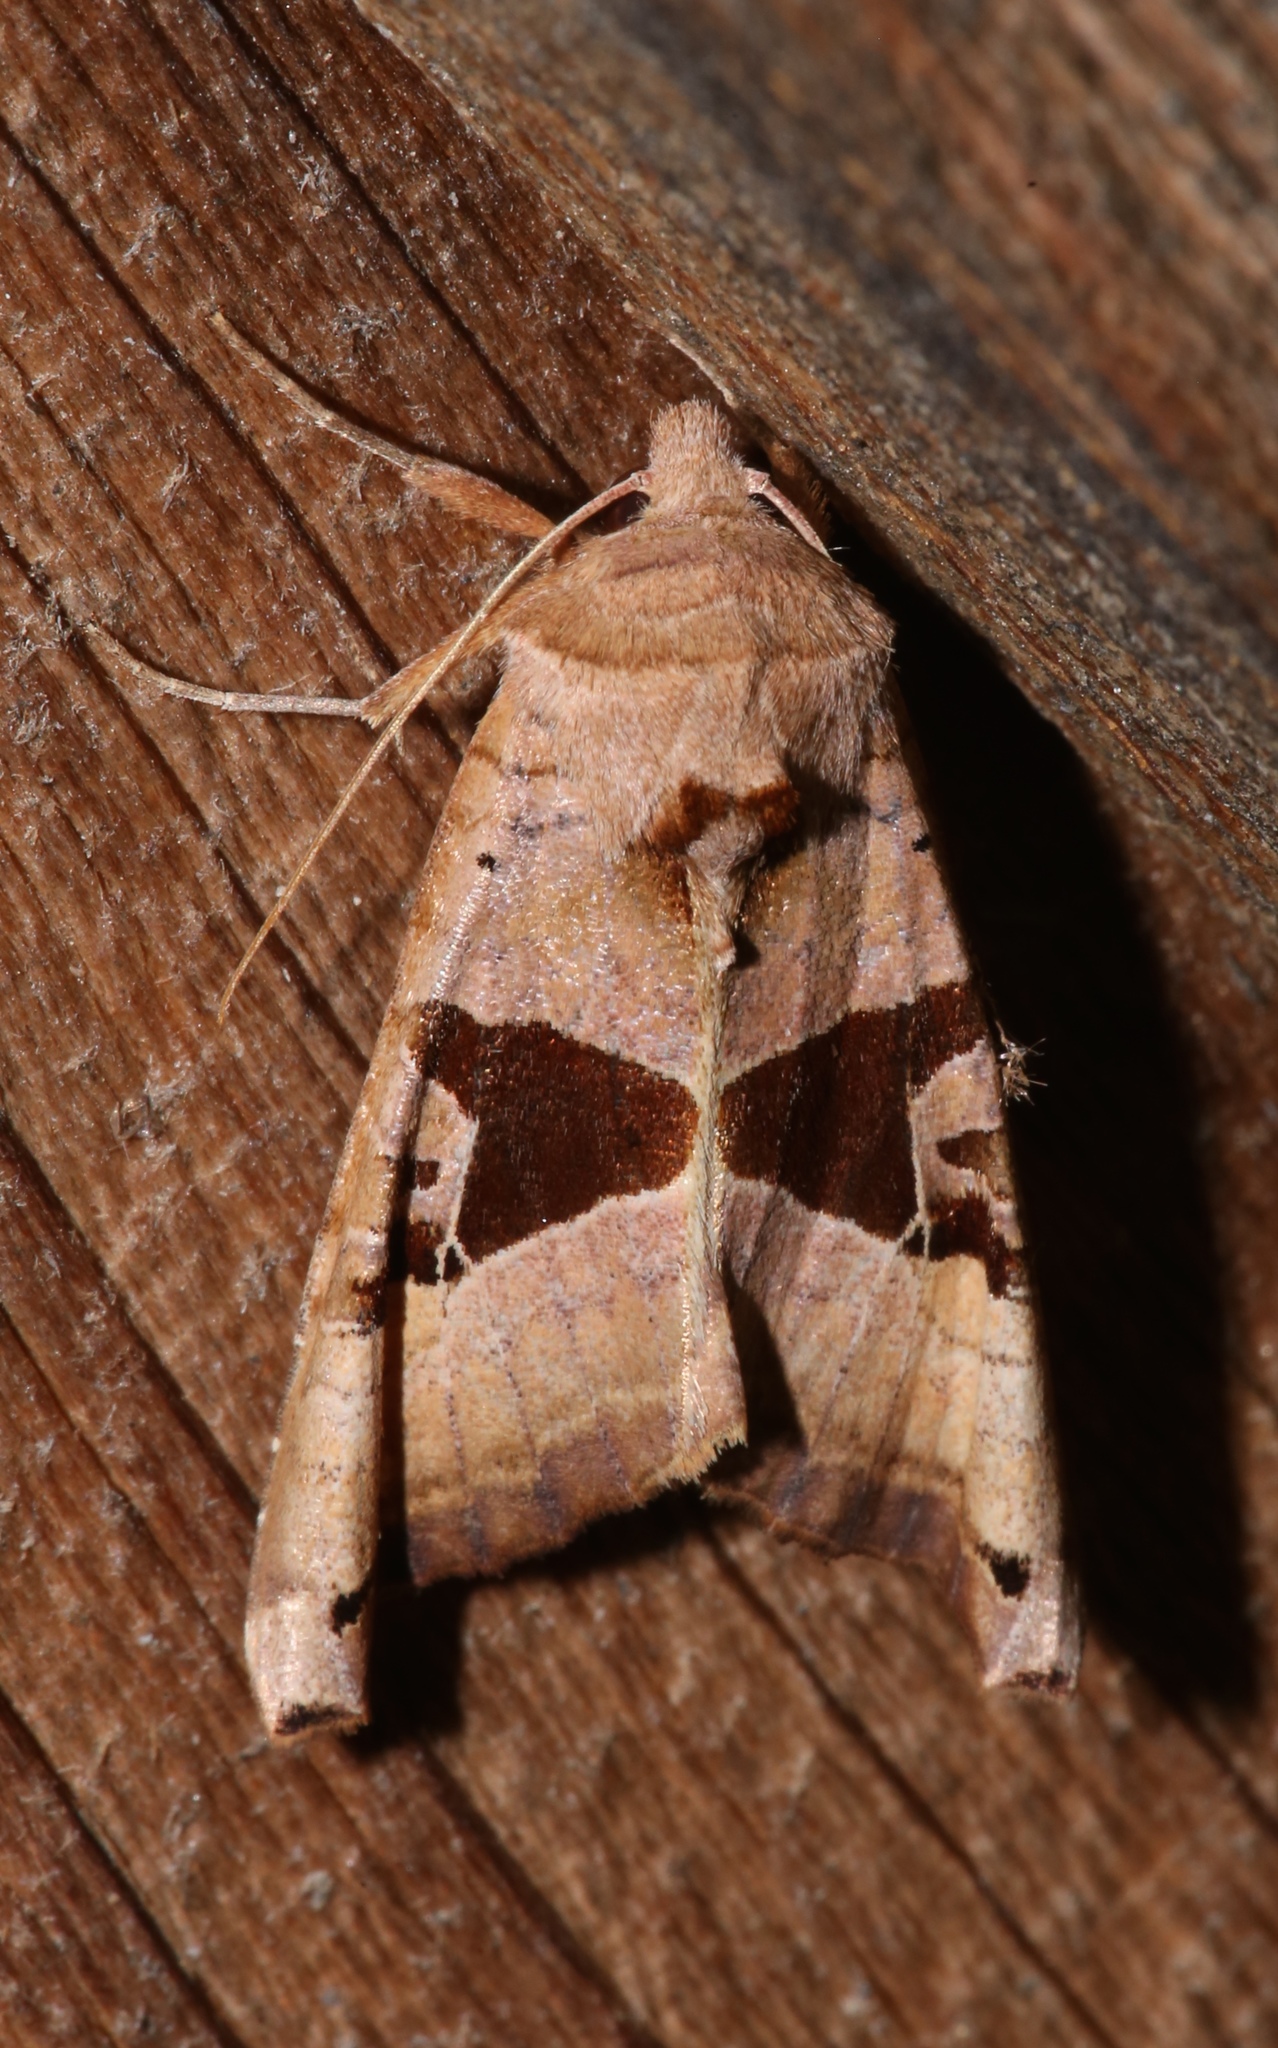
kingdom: Animalia
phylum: Arthropoda
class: Insecta
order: Lepidoptera
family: Noctuidae
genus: Phlogophora
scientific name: Phlogophora periculosa
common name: Brown angle shades
